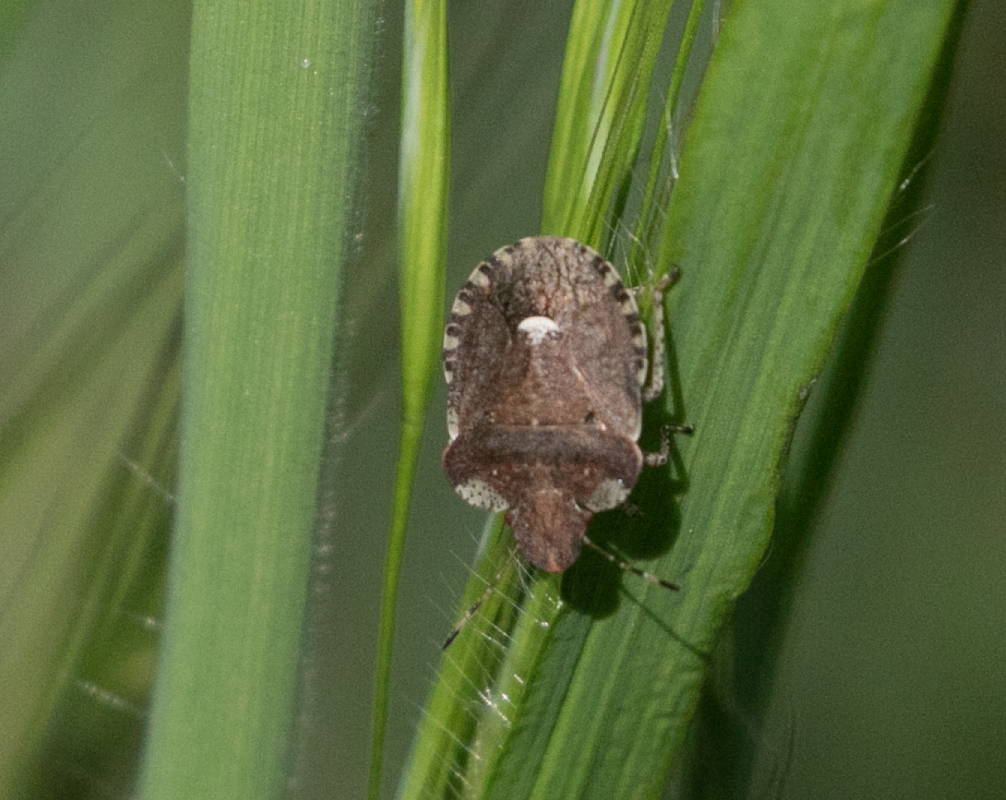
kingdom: Animalia
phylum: Arthropoda
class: Insecta
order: Hemiptera
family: Pentatomidae
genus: Dyroderes
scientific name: Dyroderes umbraculatus
